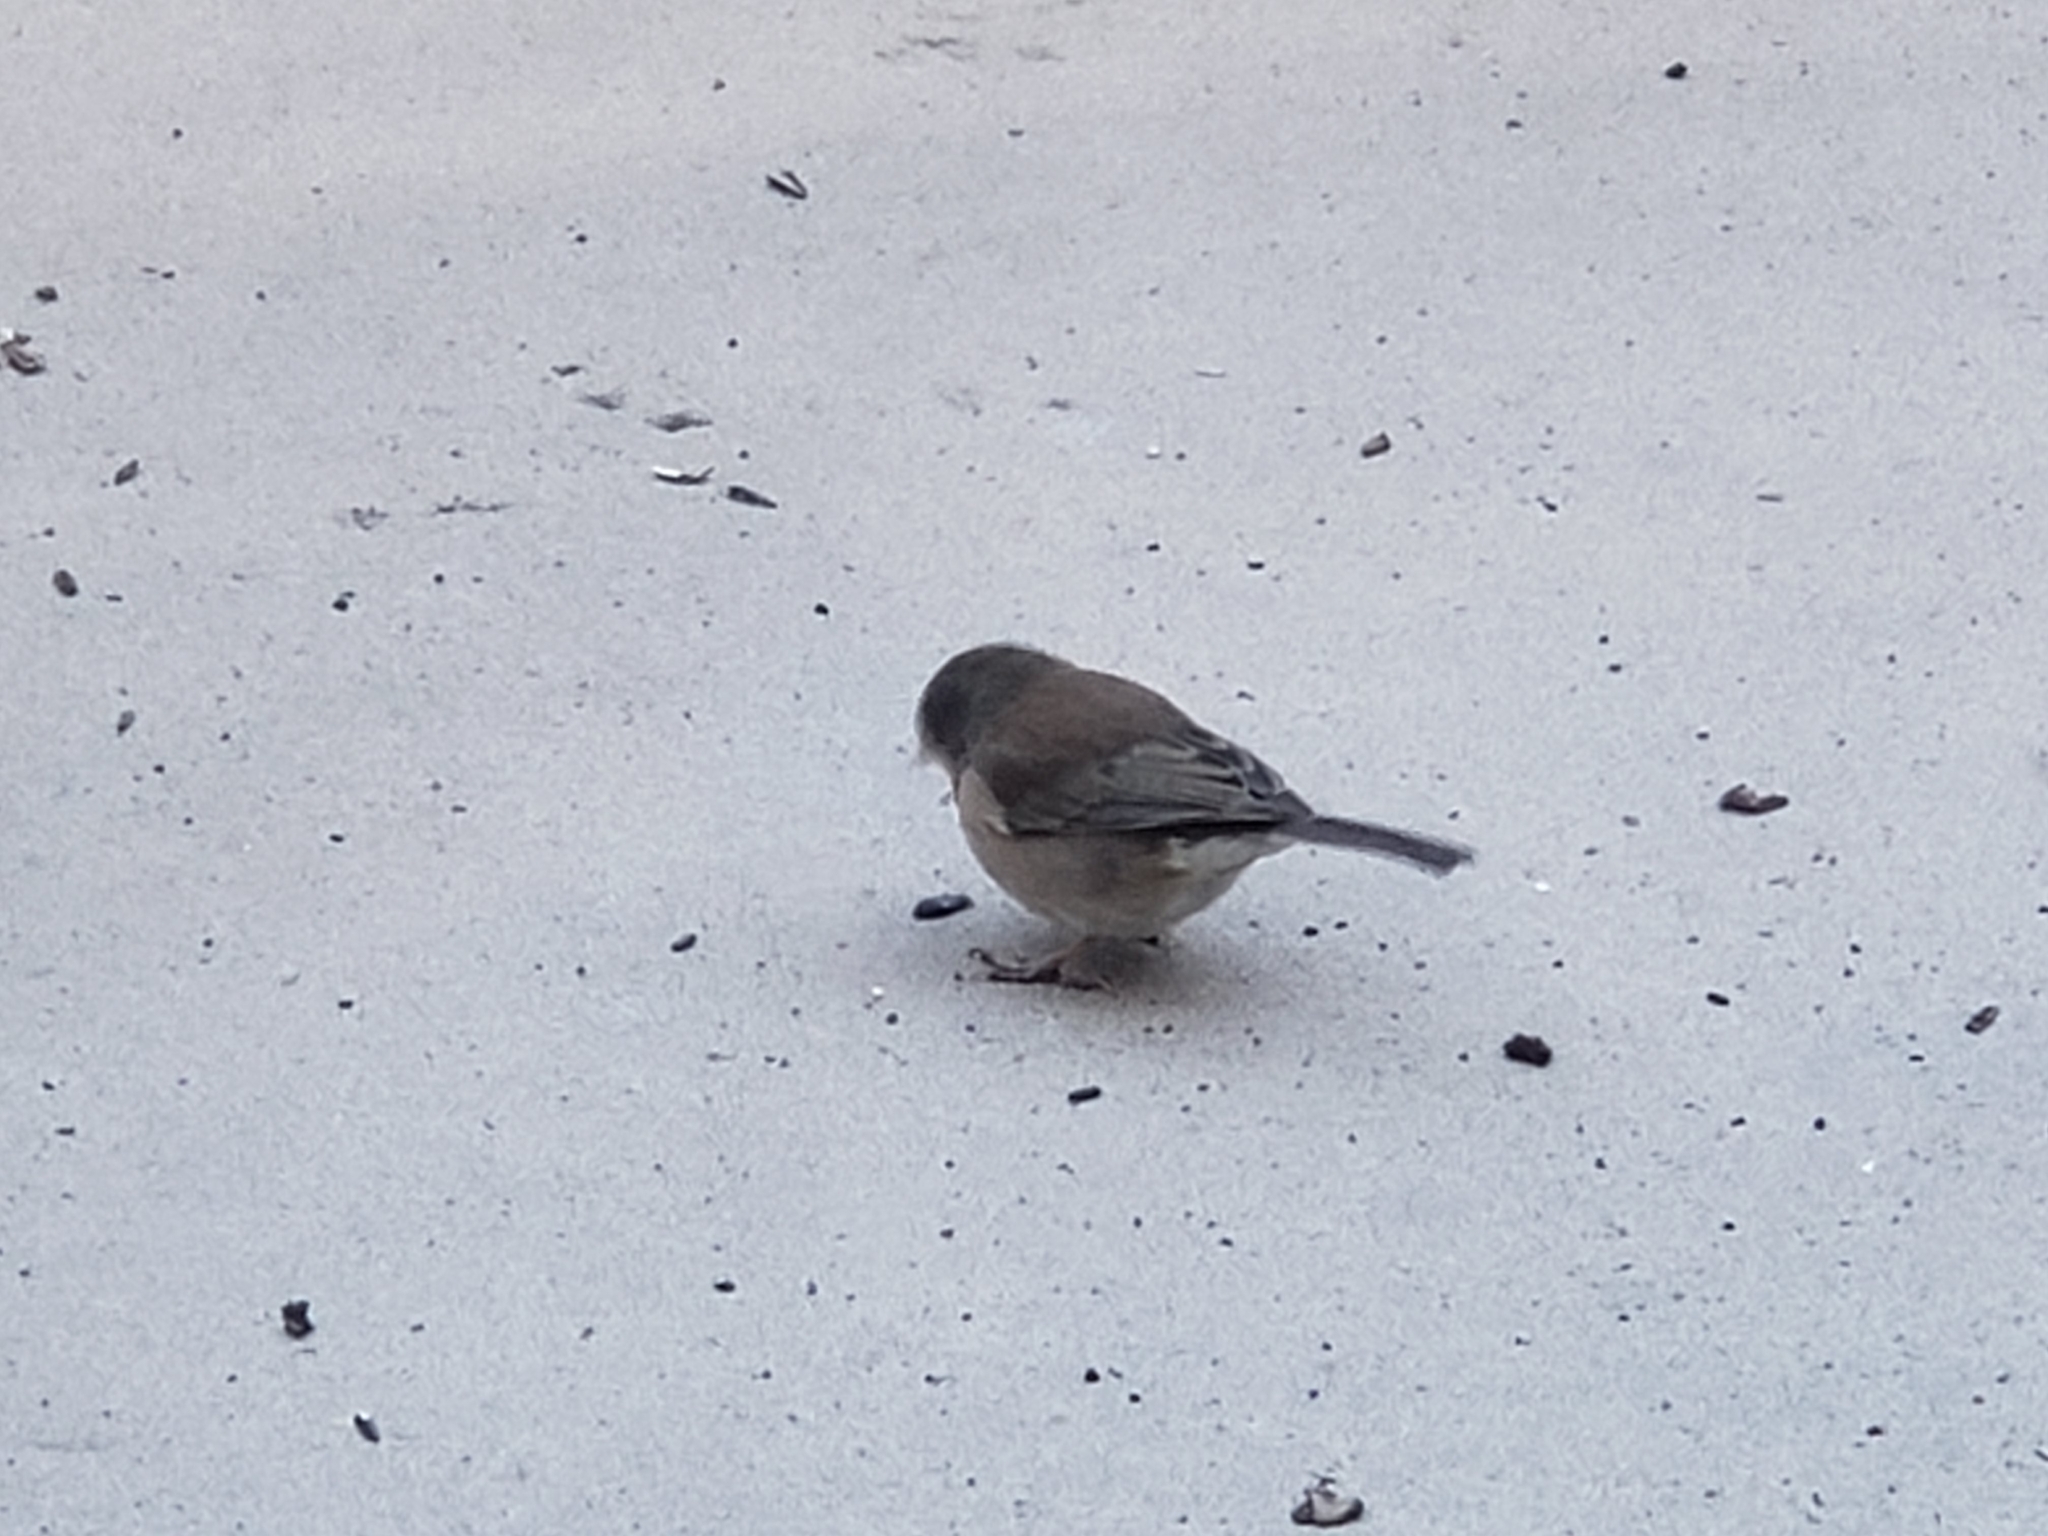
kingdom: Animalia
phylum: Chordata
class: Aves
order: Passeriformes
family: Passerellidae
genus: Junco
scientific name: Junco hyemalis
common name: Dark-eyed junco
